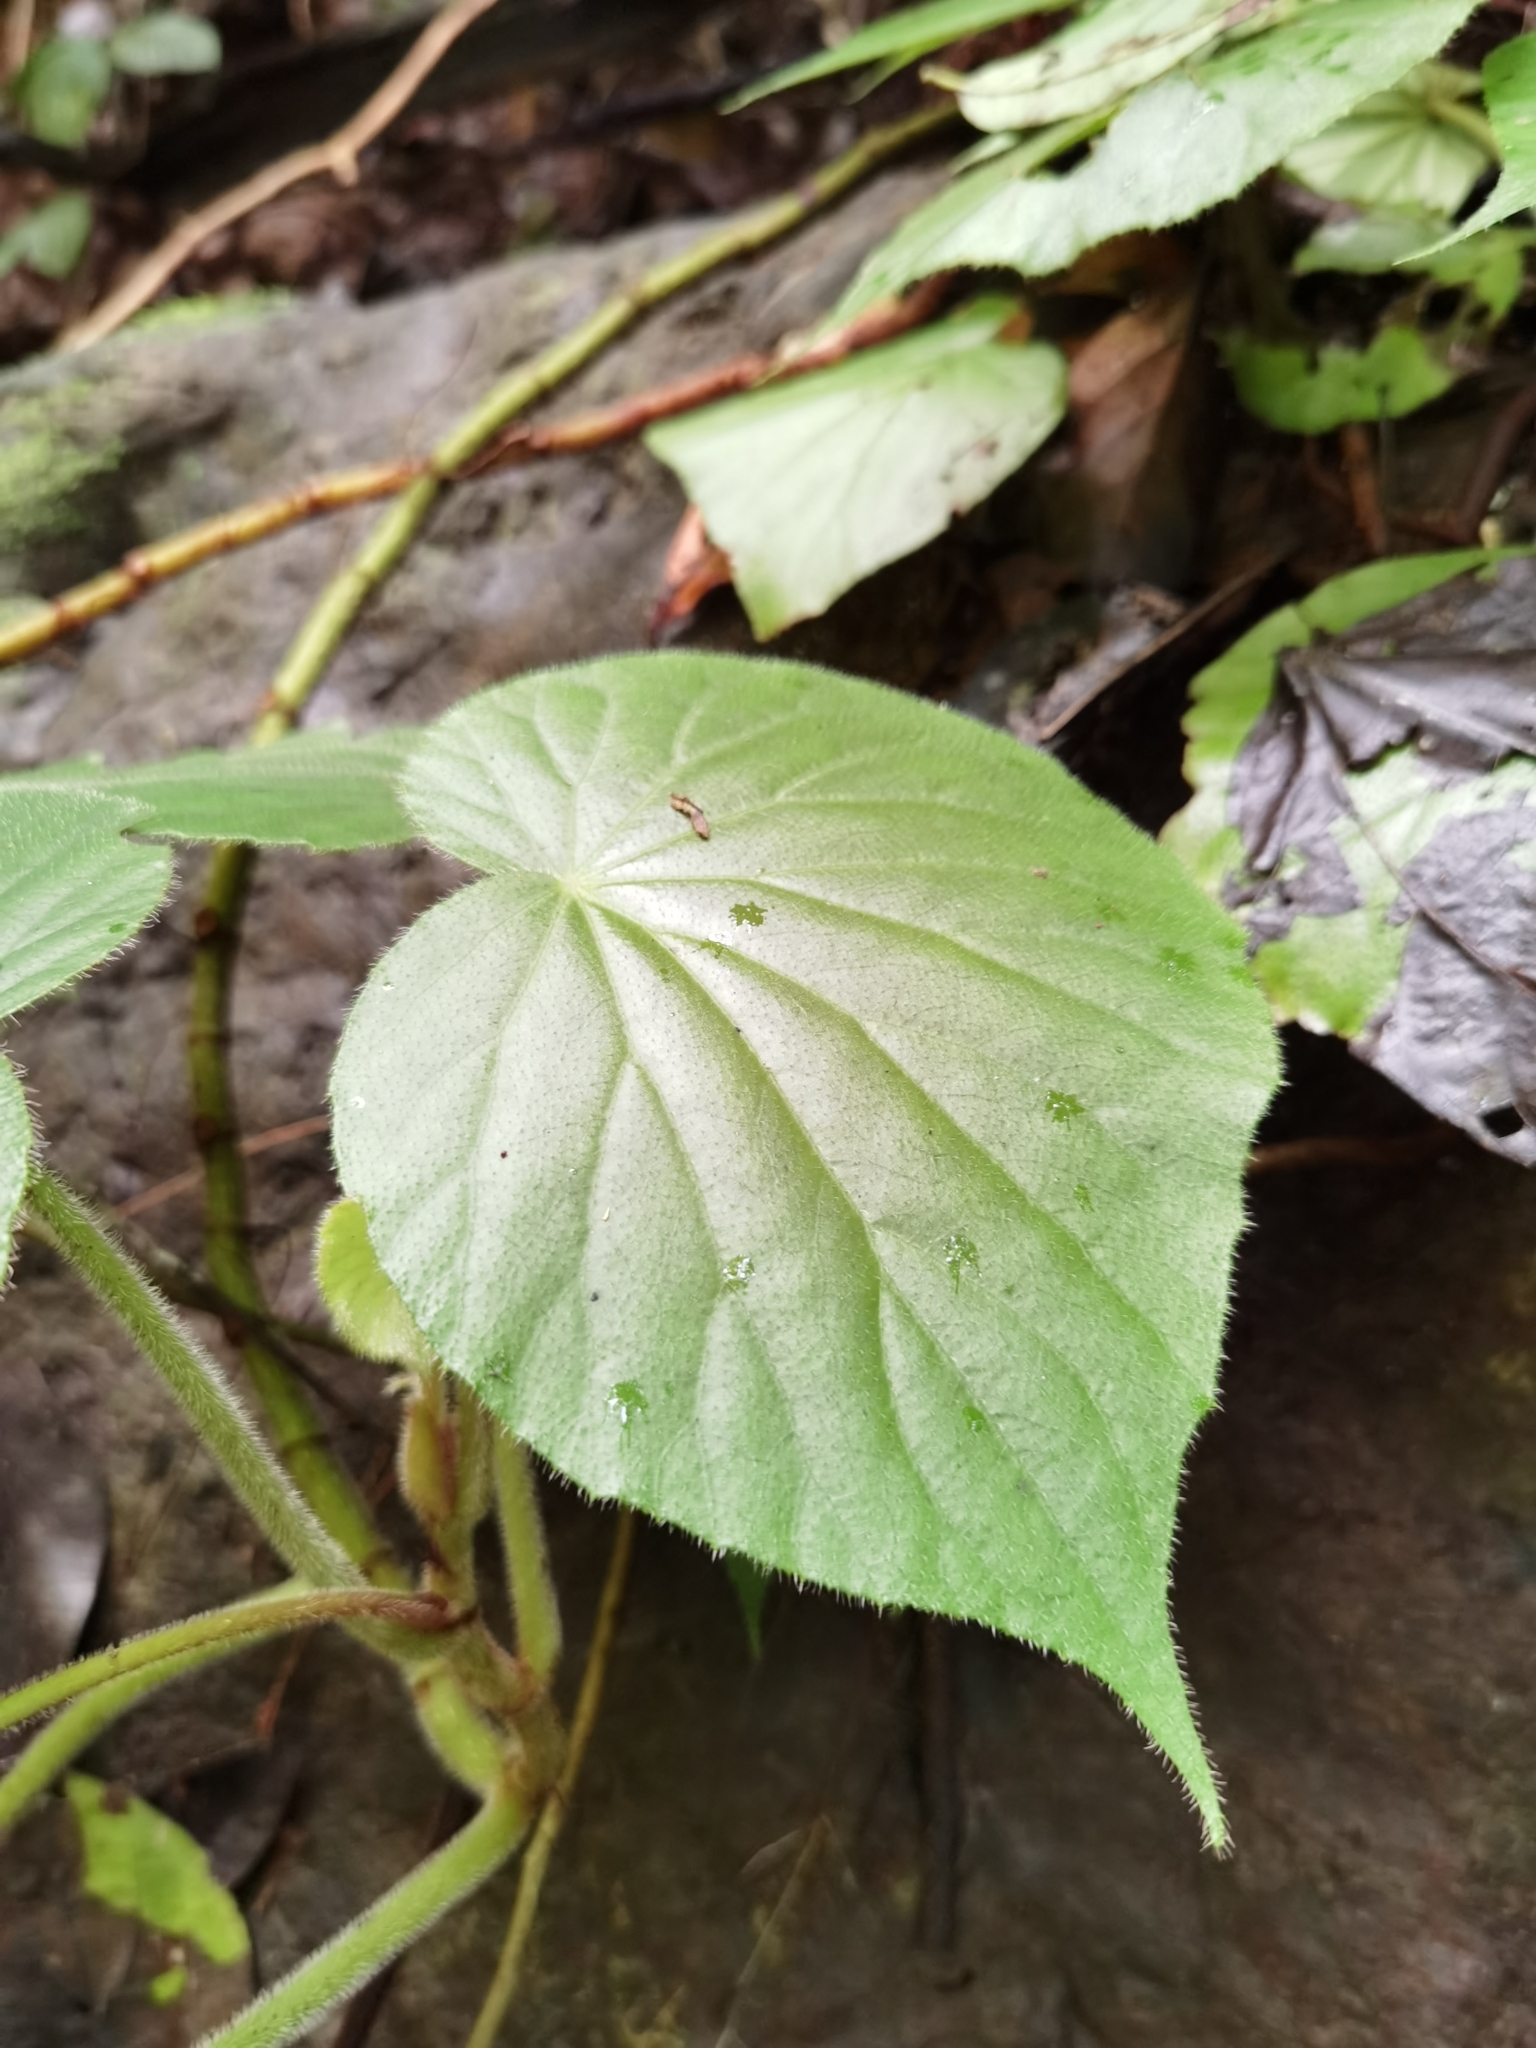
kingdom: Plantae
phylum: Tracheophyta
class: Magnoliopsida
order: Cucurbitales
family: Begoniaceae
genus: Begonia
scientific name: Begonia corredorana
